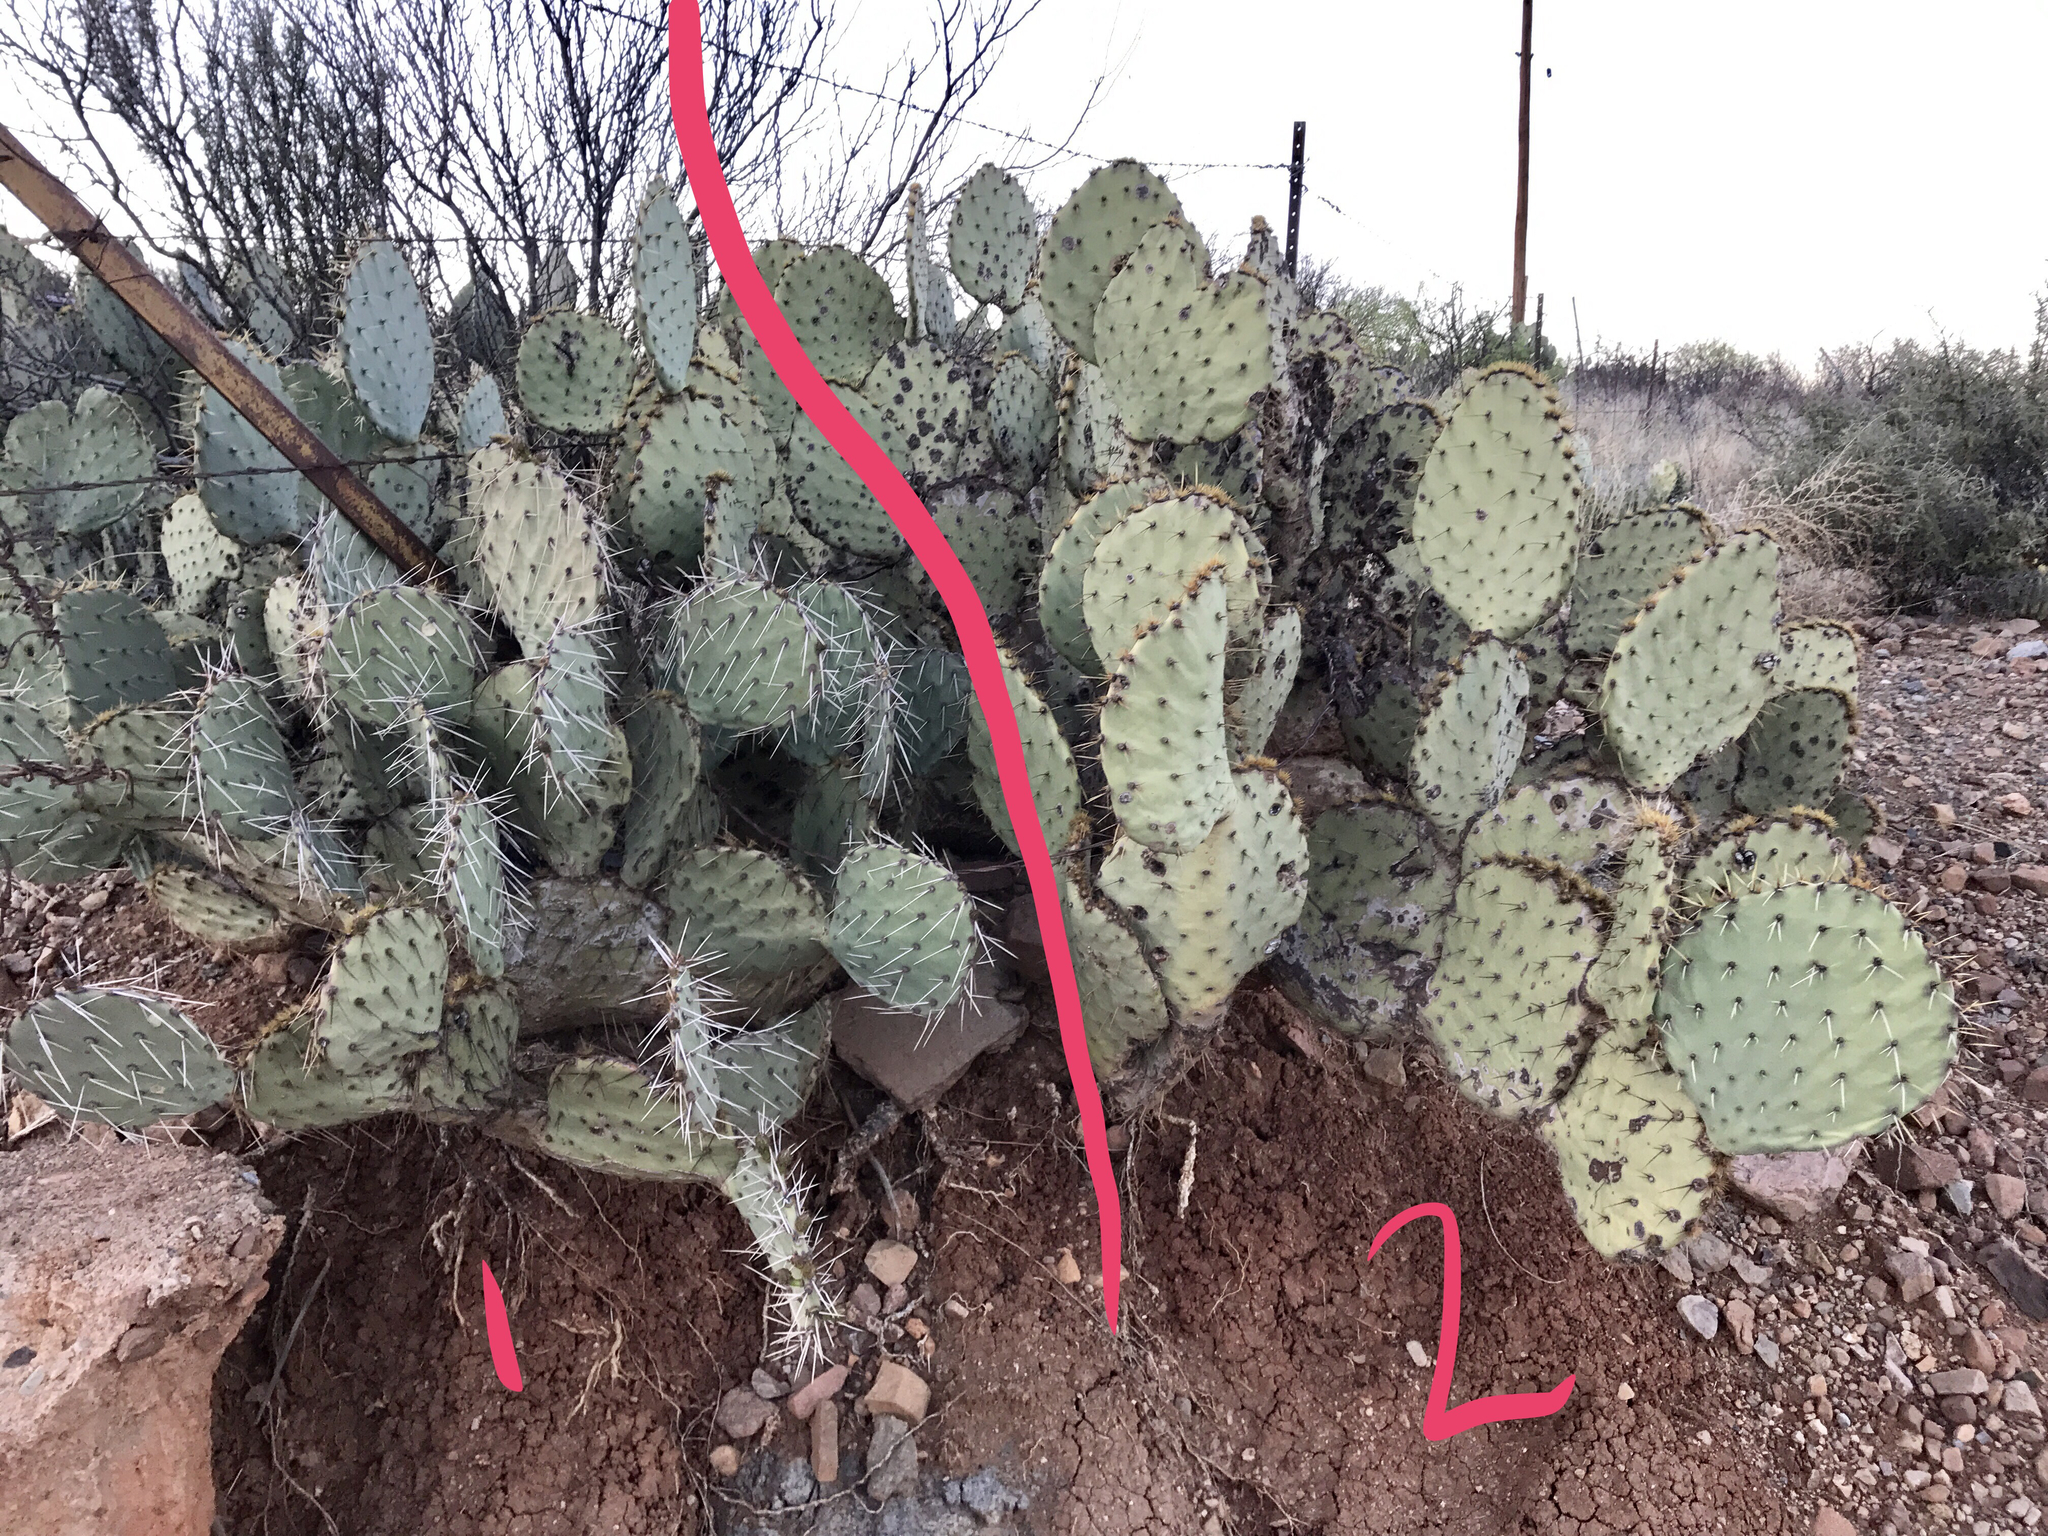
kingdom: Plantae
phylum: Tracheophyta
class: Magnoliopsida
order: Caryophyllales
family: Cactaceae
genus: Opuntia
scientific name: Opuntia engelmannii
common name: Cactus-apple
